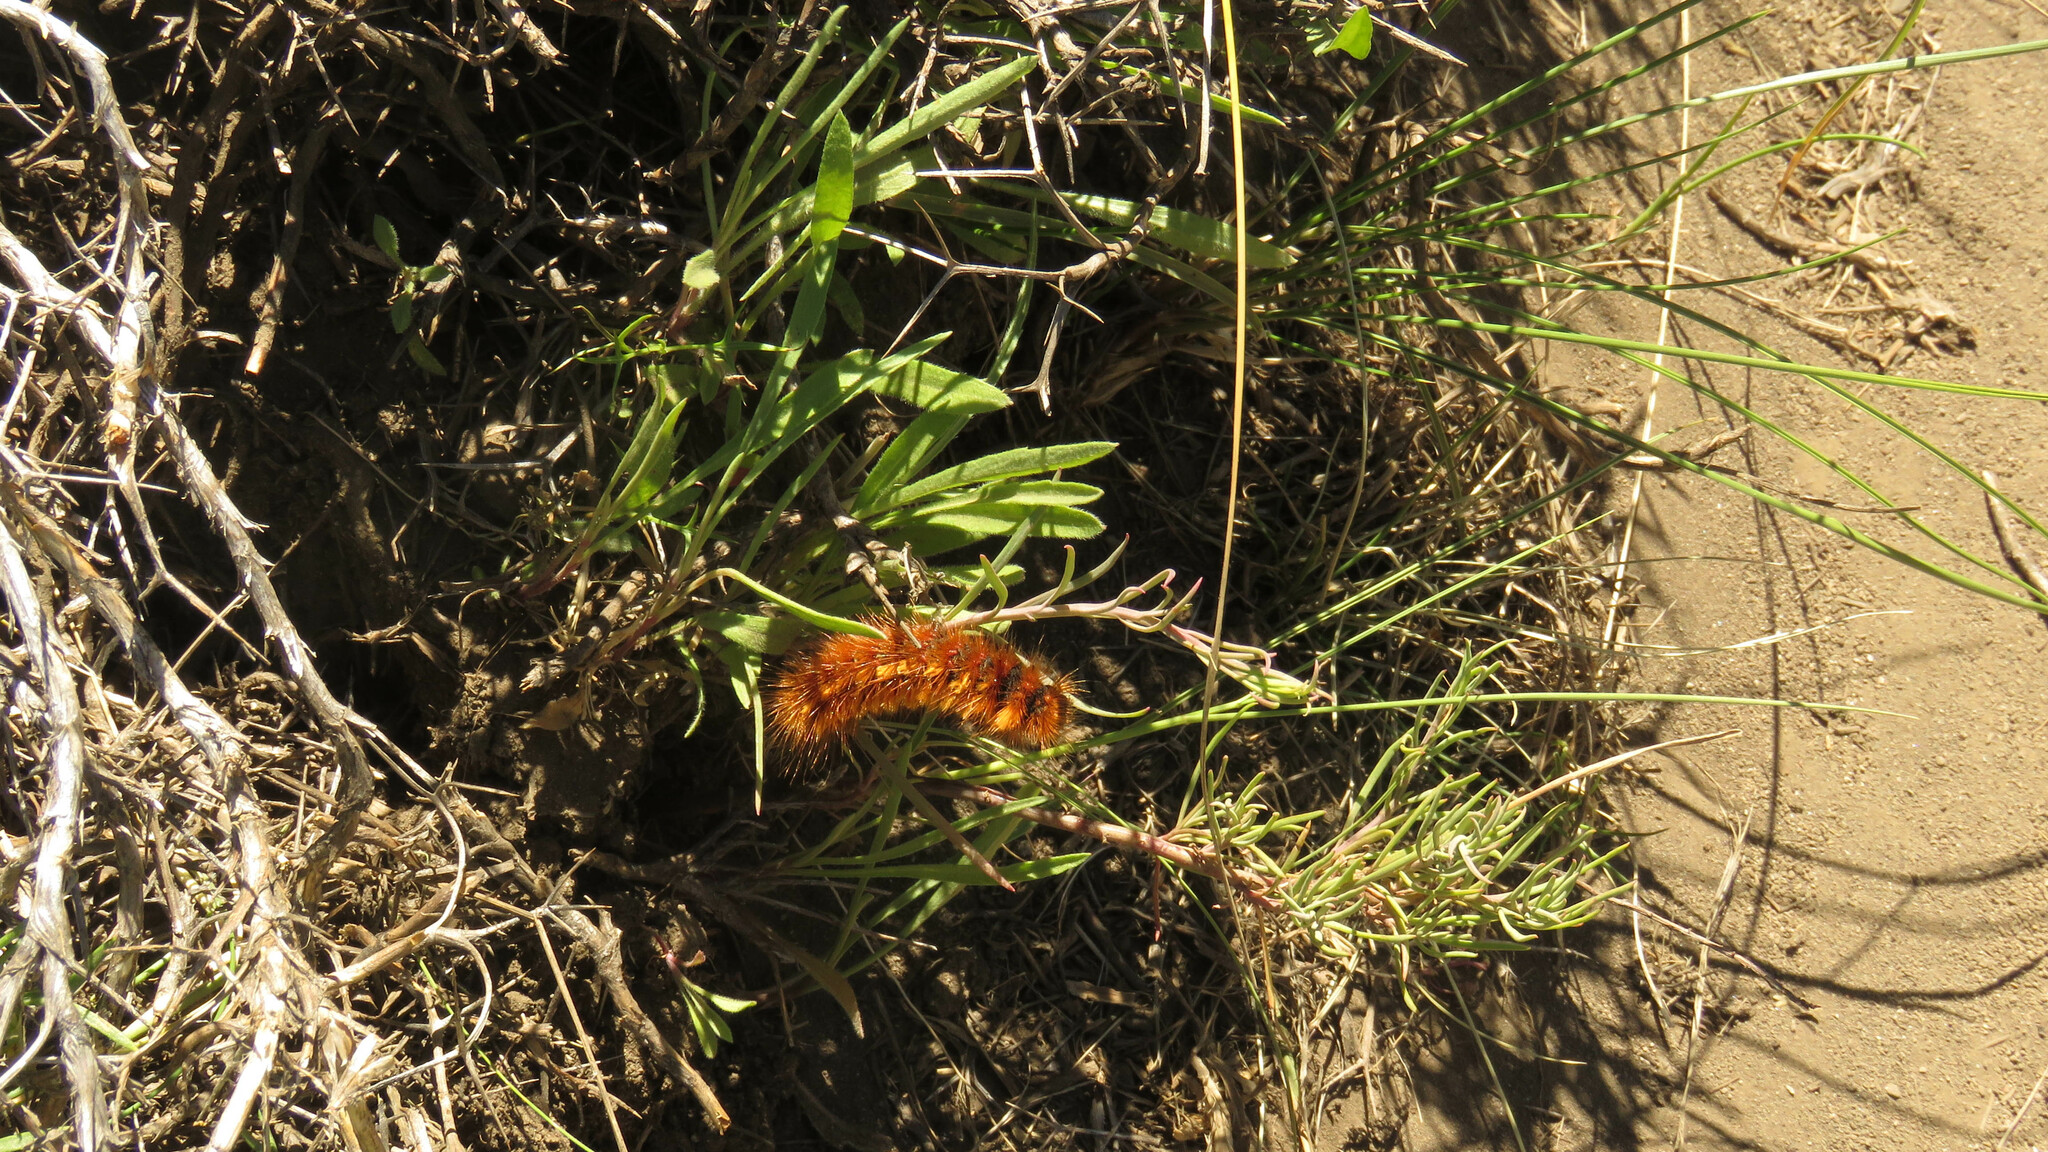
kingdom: Animalia
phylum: Arthropoda
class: Insecta
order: Lepidoptera
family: Erebidae
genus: Paracles
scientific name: Paracles severa
